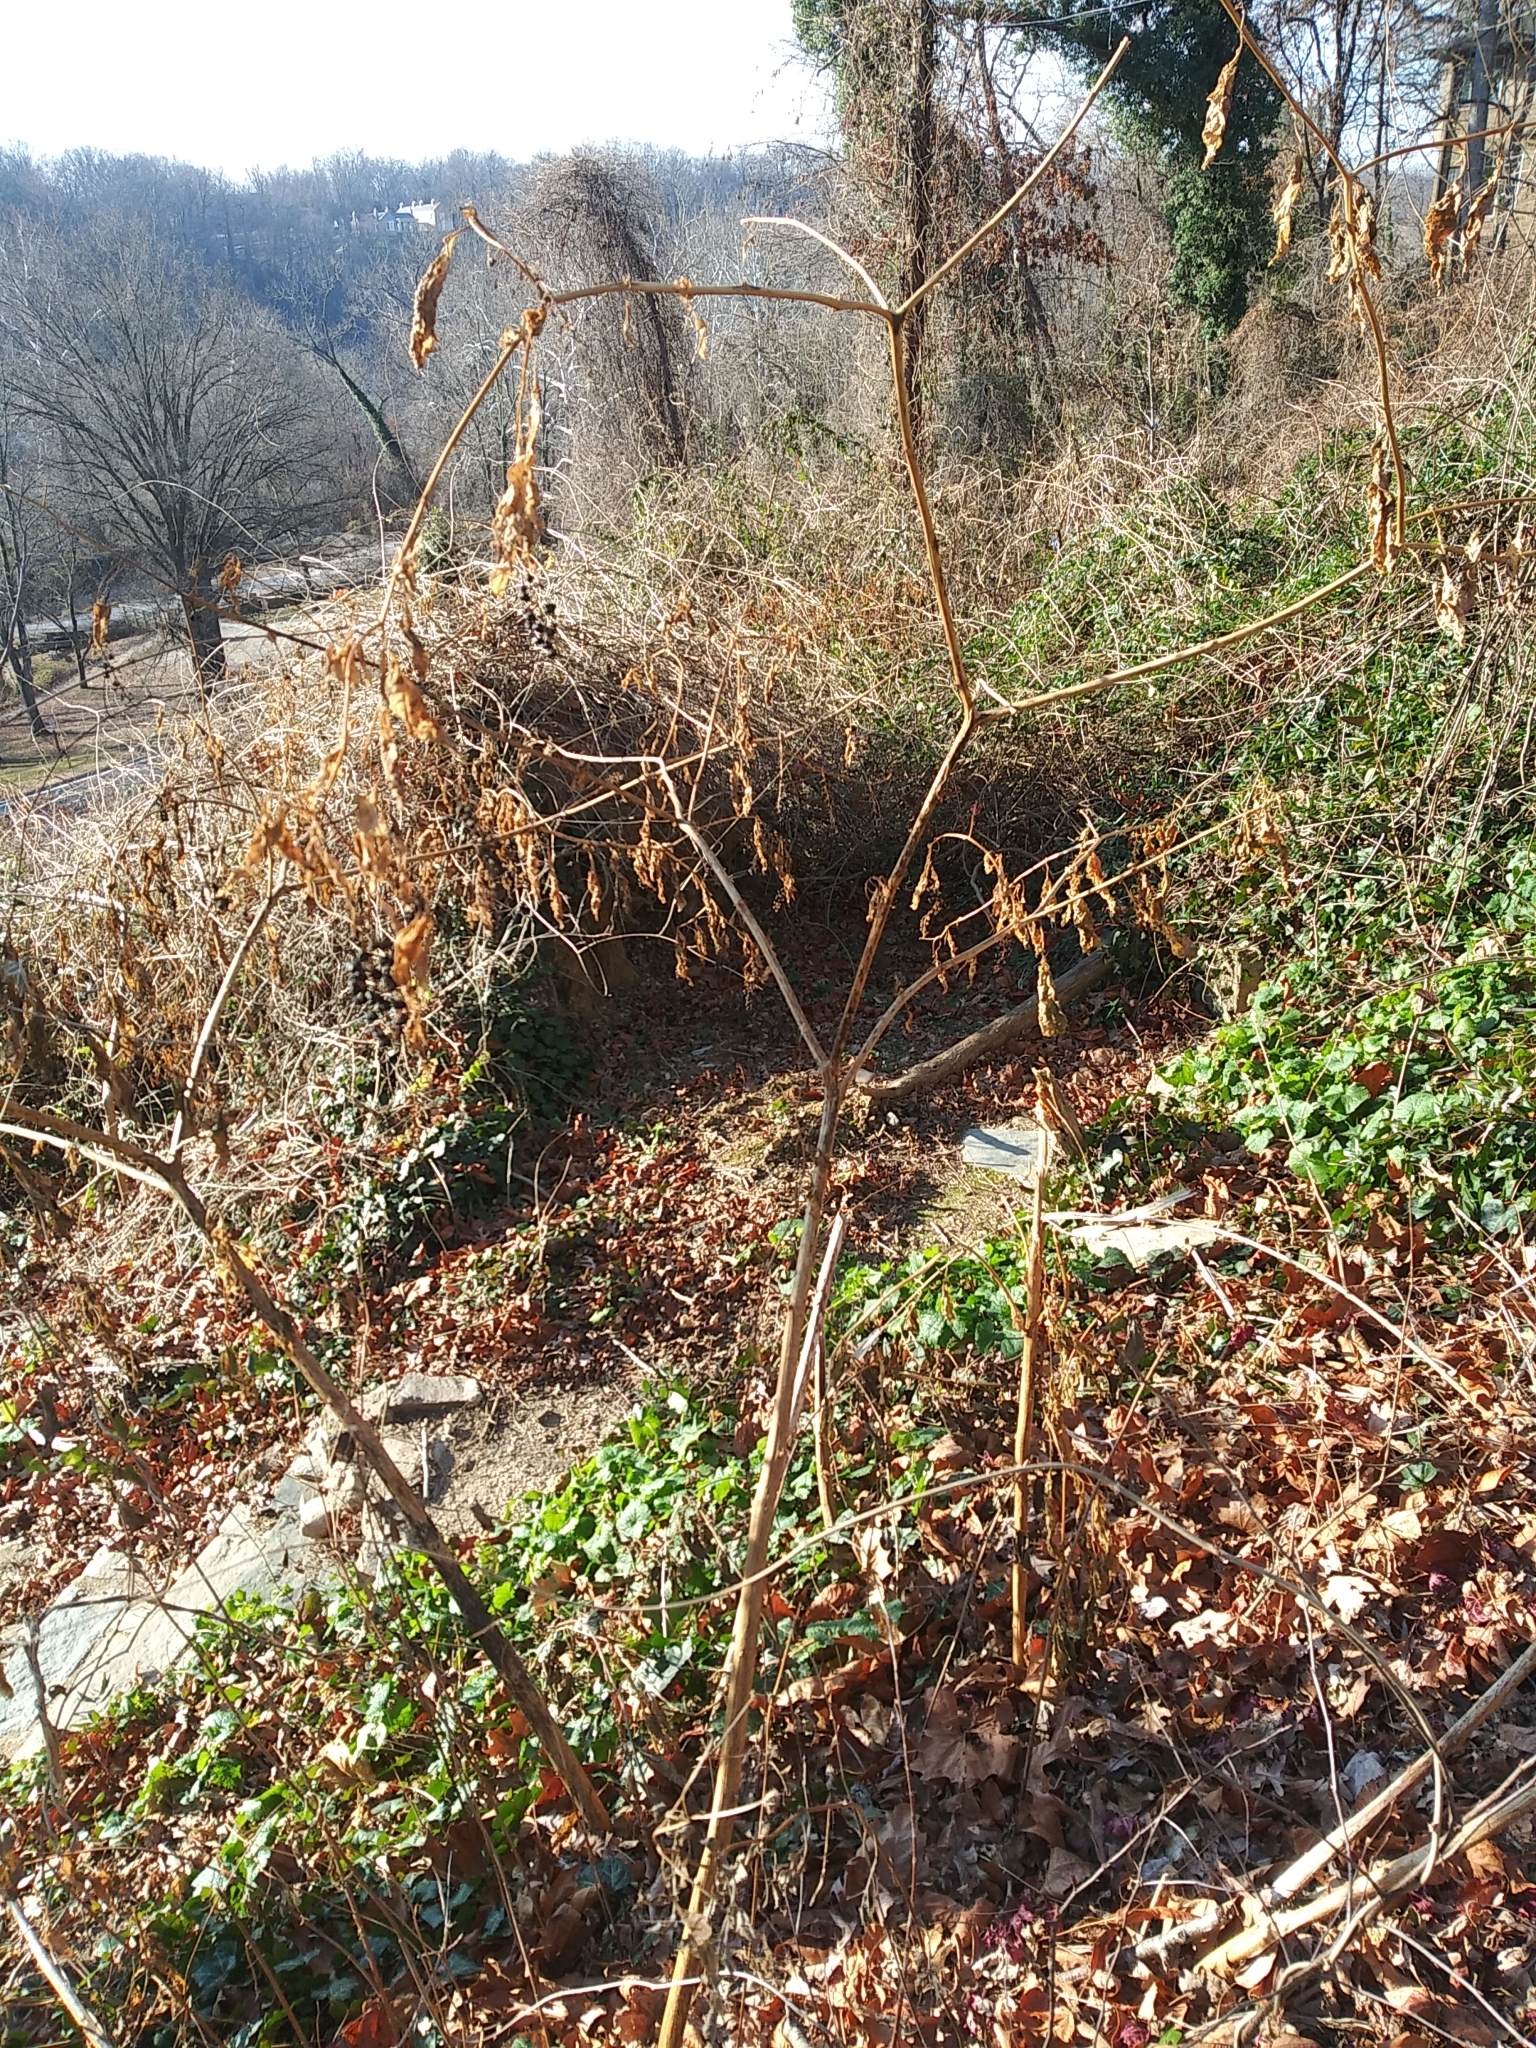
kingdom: Plantae
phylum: Tracheophyta
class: Magnoliopsida
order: Caryophyllales
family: Phytolaccaceae
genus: Phytolacca
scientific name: Phytolacca americana
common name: American pokeweed
